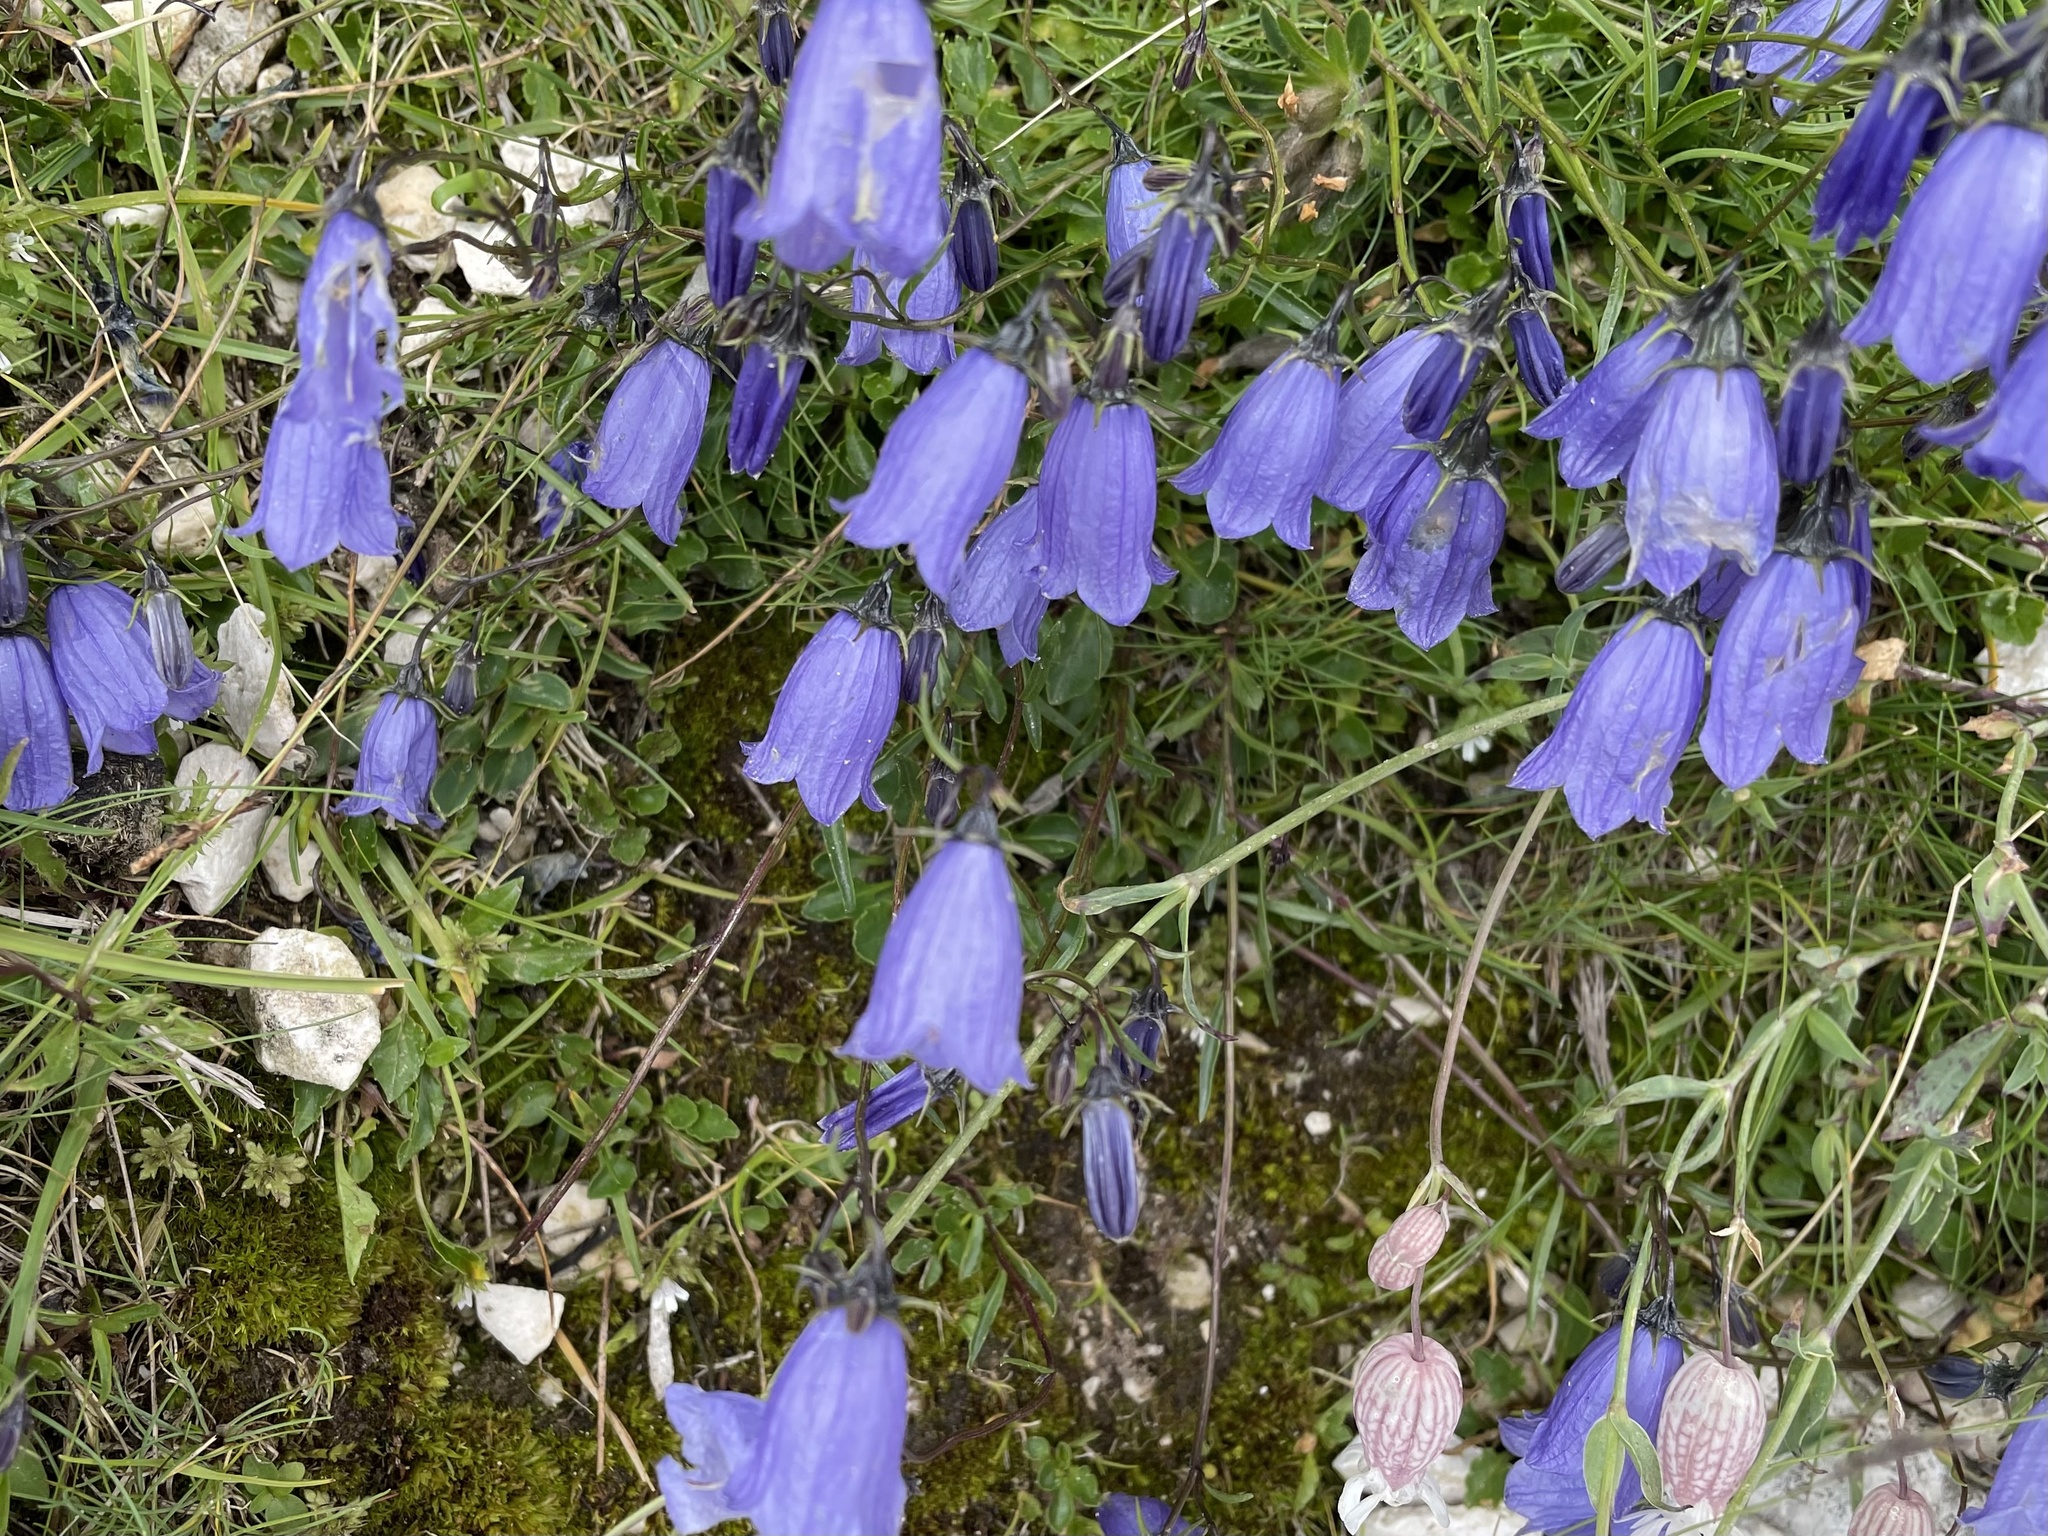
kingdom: Plantae
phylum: Tracheophyta
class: Magnoliopsida
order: Asterales
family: Campanulaceae
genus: Campanula
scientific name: Campanula cochleariifolia
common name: Fairies'-thimbles
